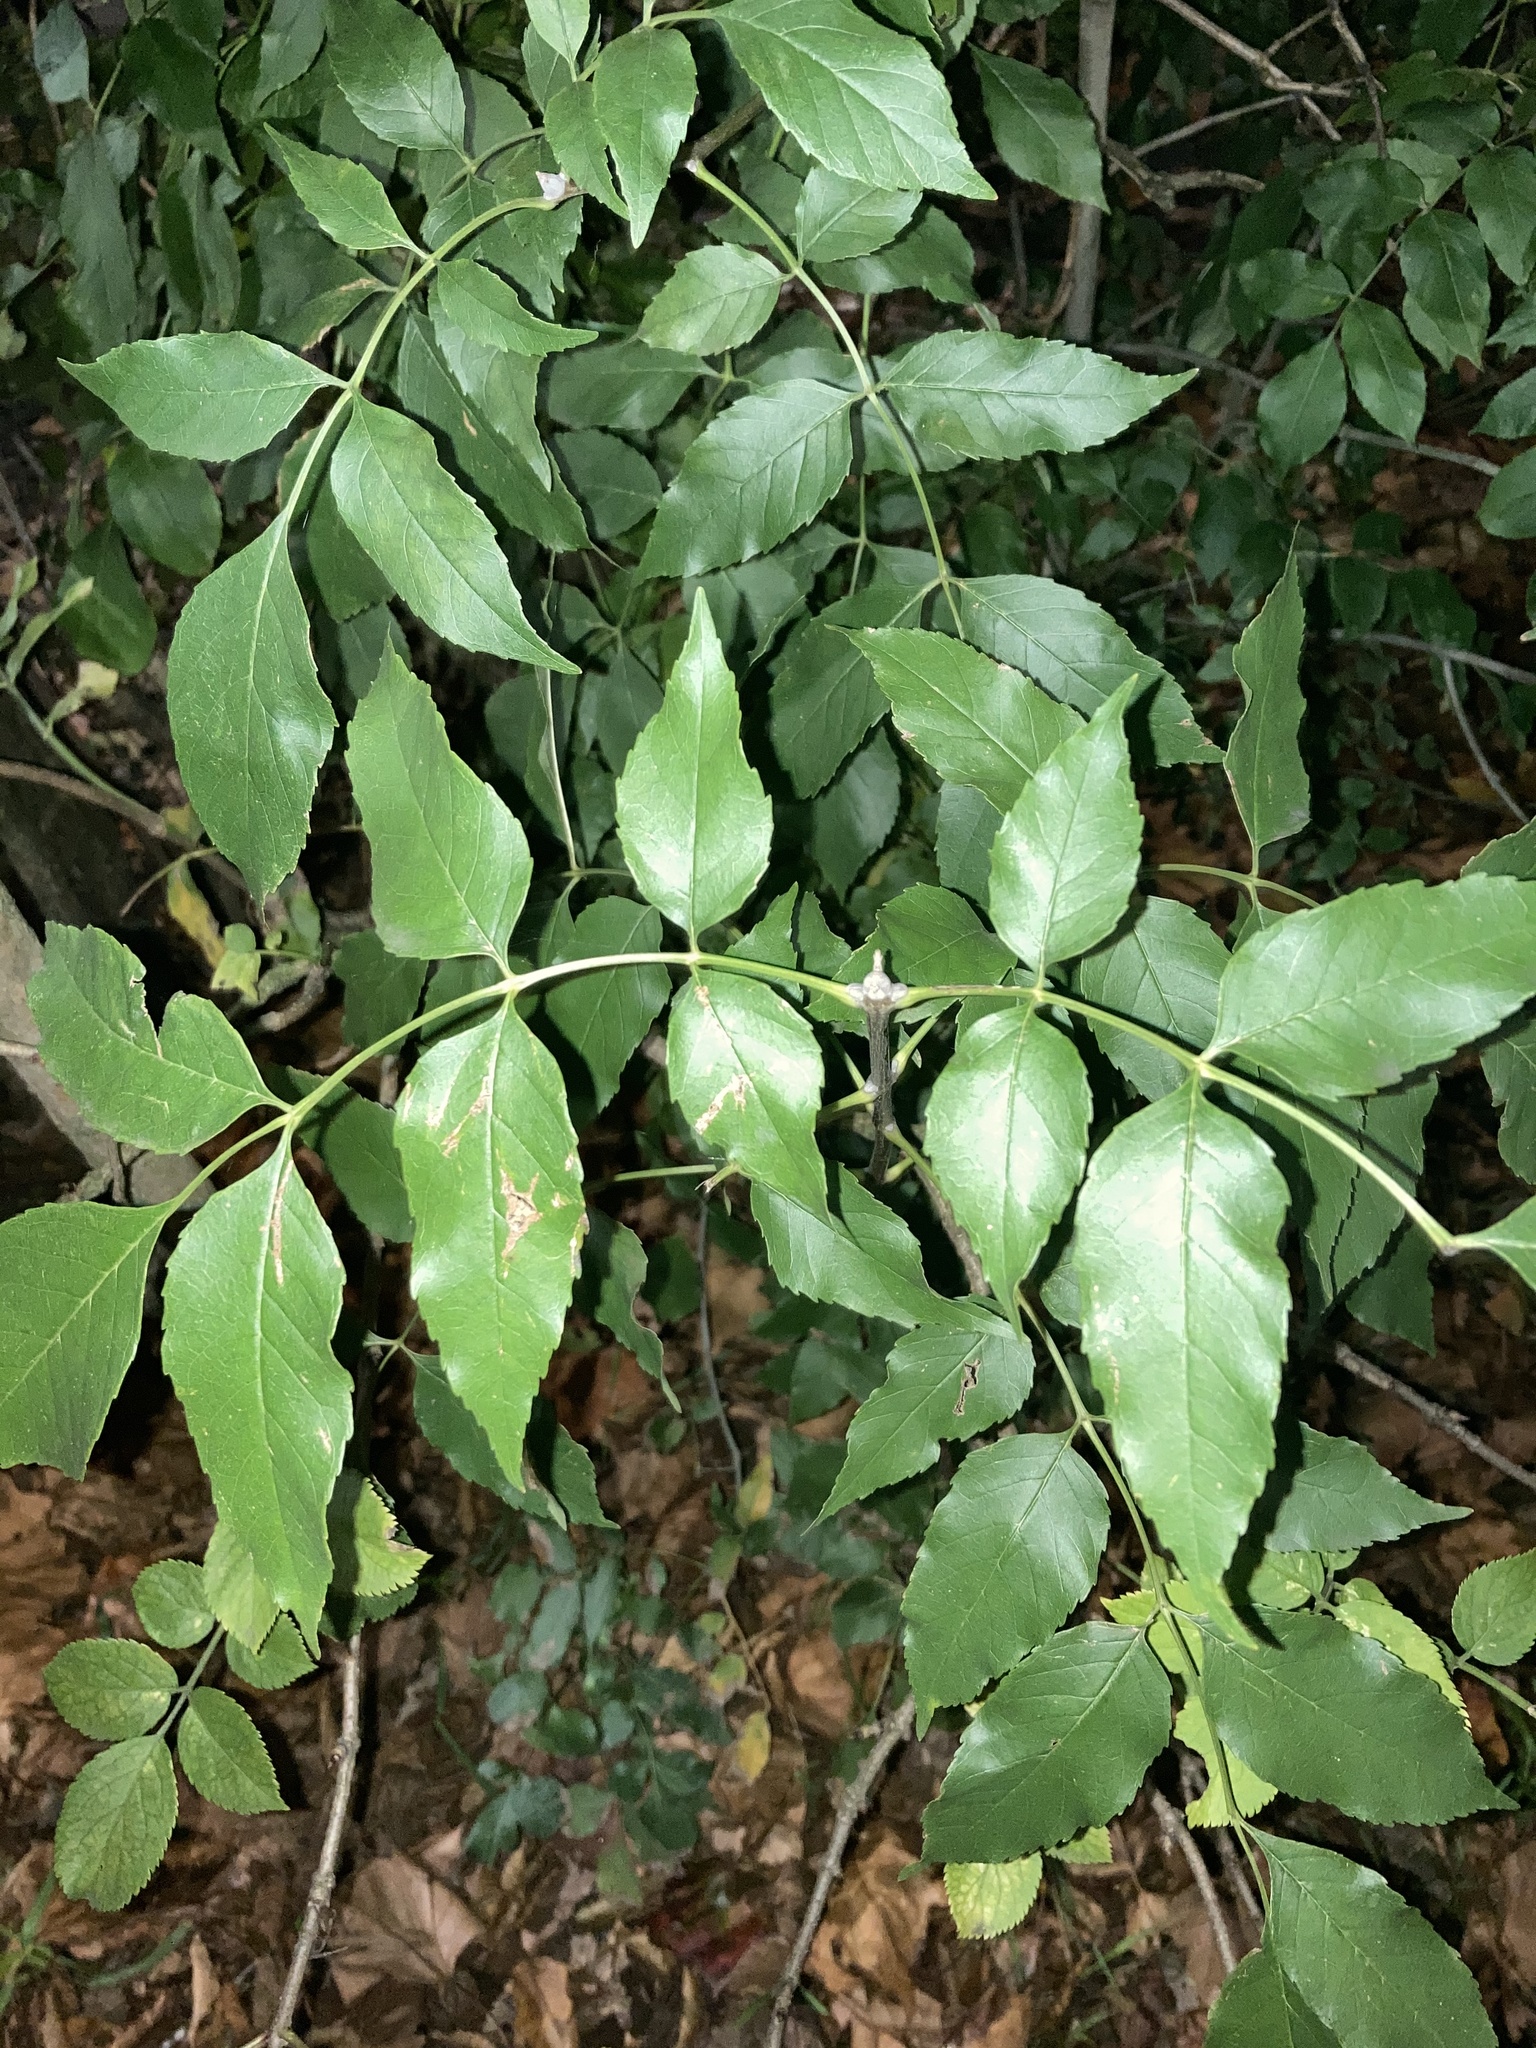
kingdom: Plantae
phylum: Tracheophyta
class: Magnoliopsida
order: Dipsacales
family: Viburnaceae
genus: Sambucus
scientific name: Sambucus nigra
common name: Elder
